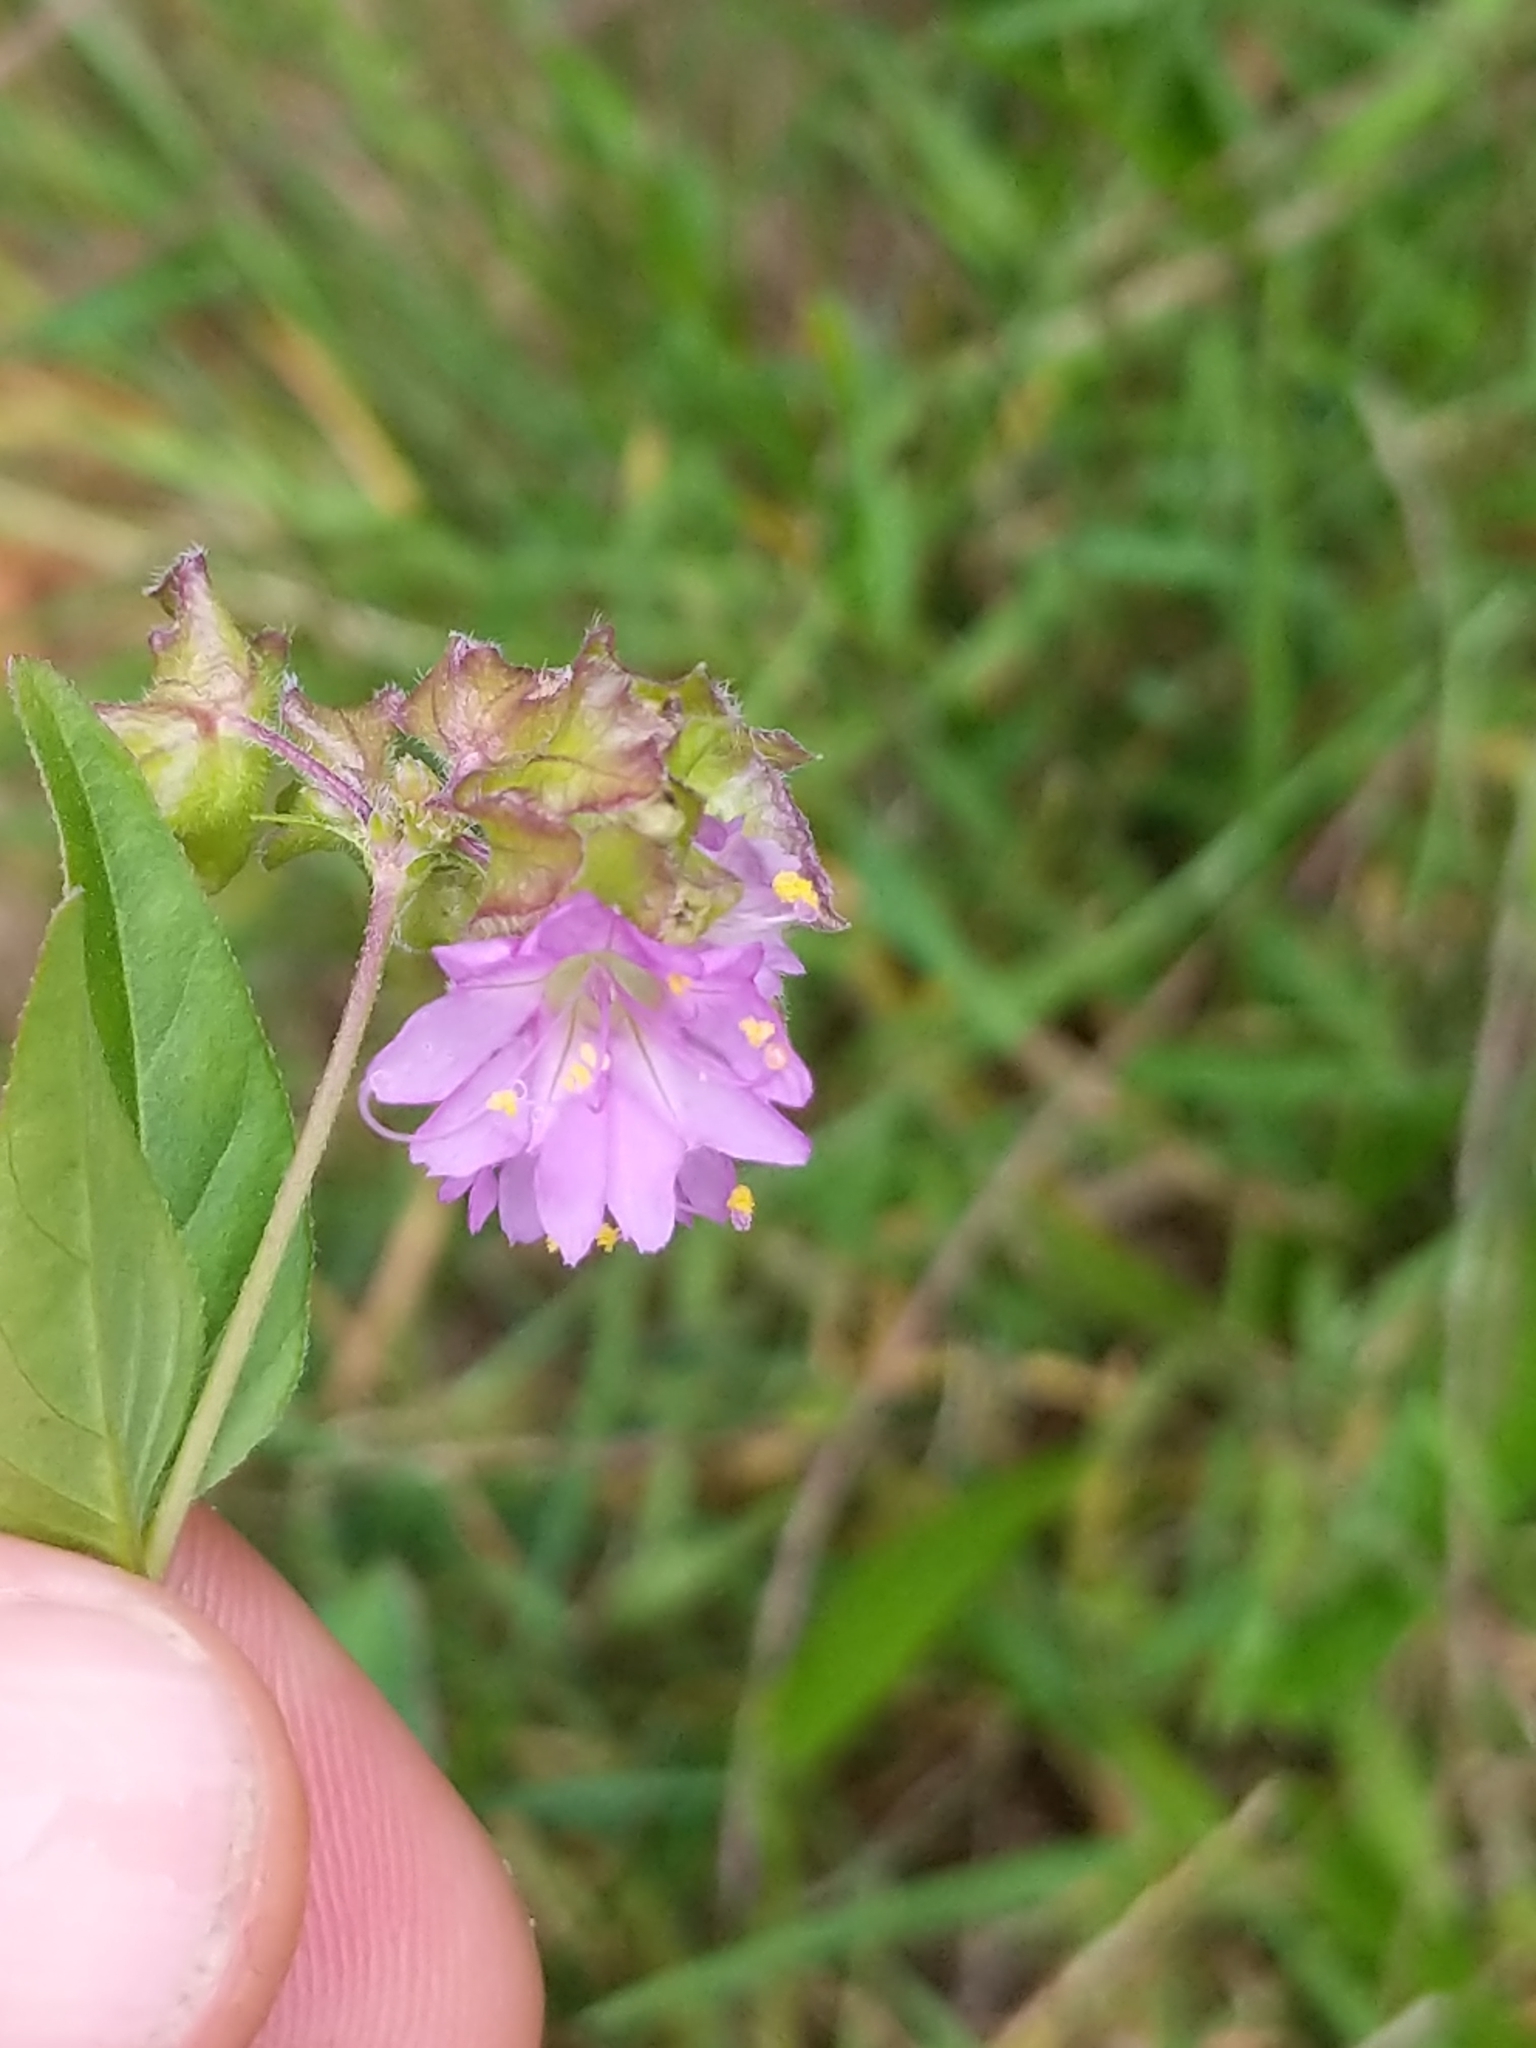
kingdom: Plantae
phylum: Tracheophyta
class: Magnoliopsida
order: Caryophyllales
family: Nyctaginaceae
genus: Mirabilis
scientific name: Mirabilis nyctaginea
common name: Umbrella wort
